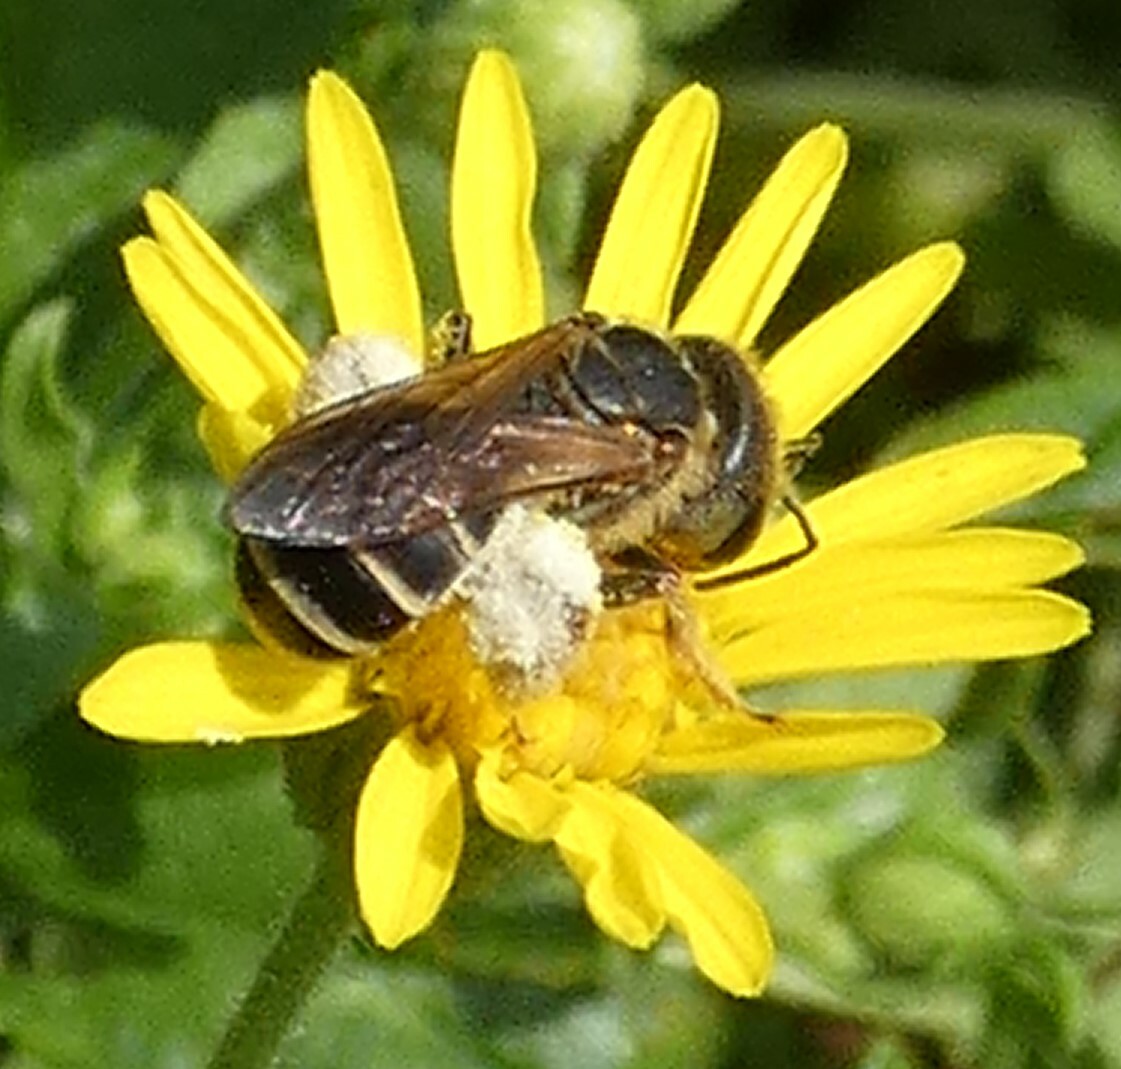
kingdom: Animalia
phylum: Arthropoda
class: Insecta
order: Hymenoptera
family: Halictidae
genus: Halictus
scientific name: Halictus poeyi
